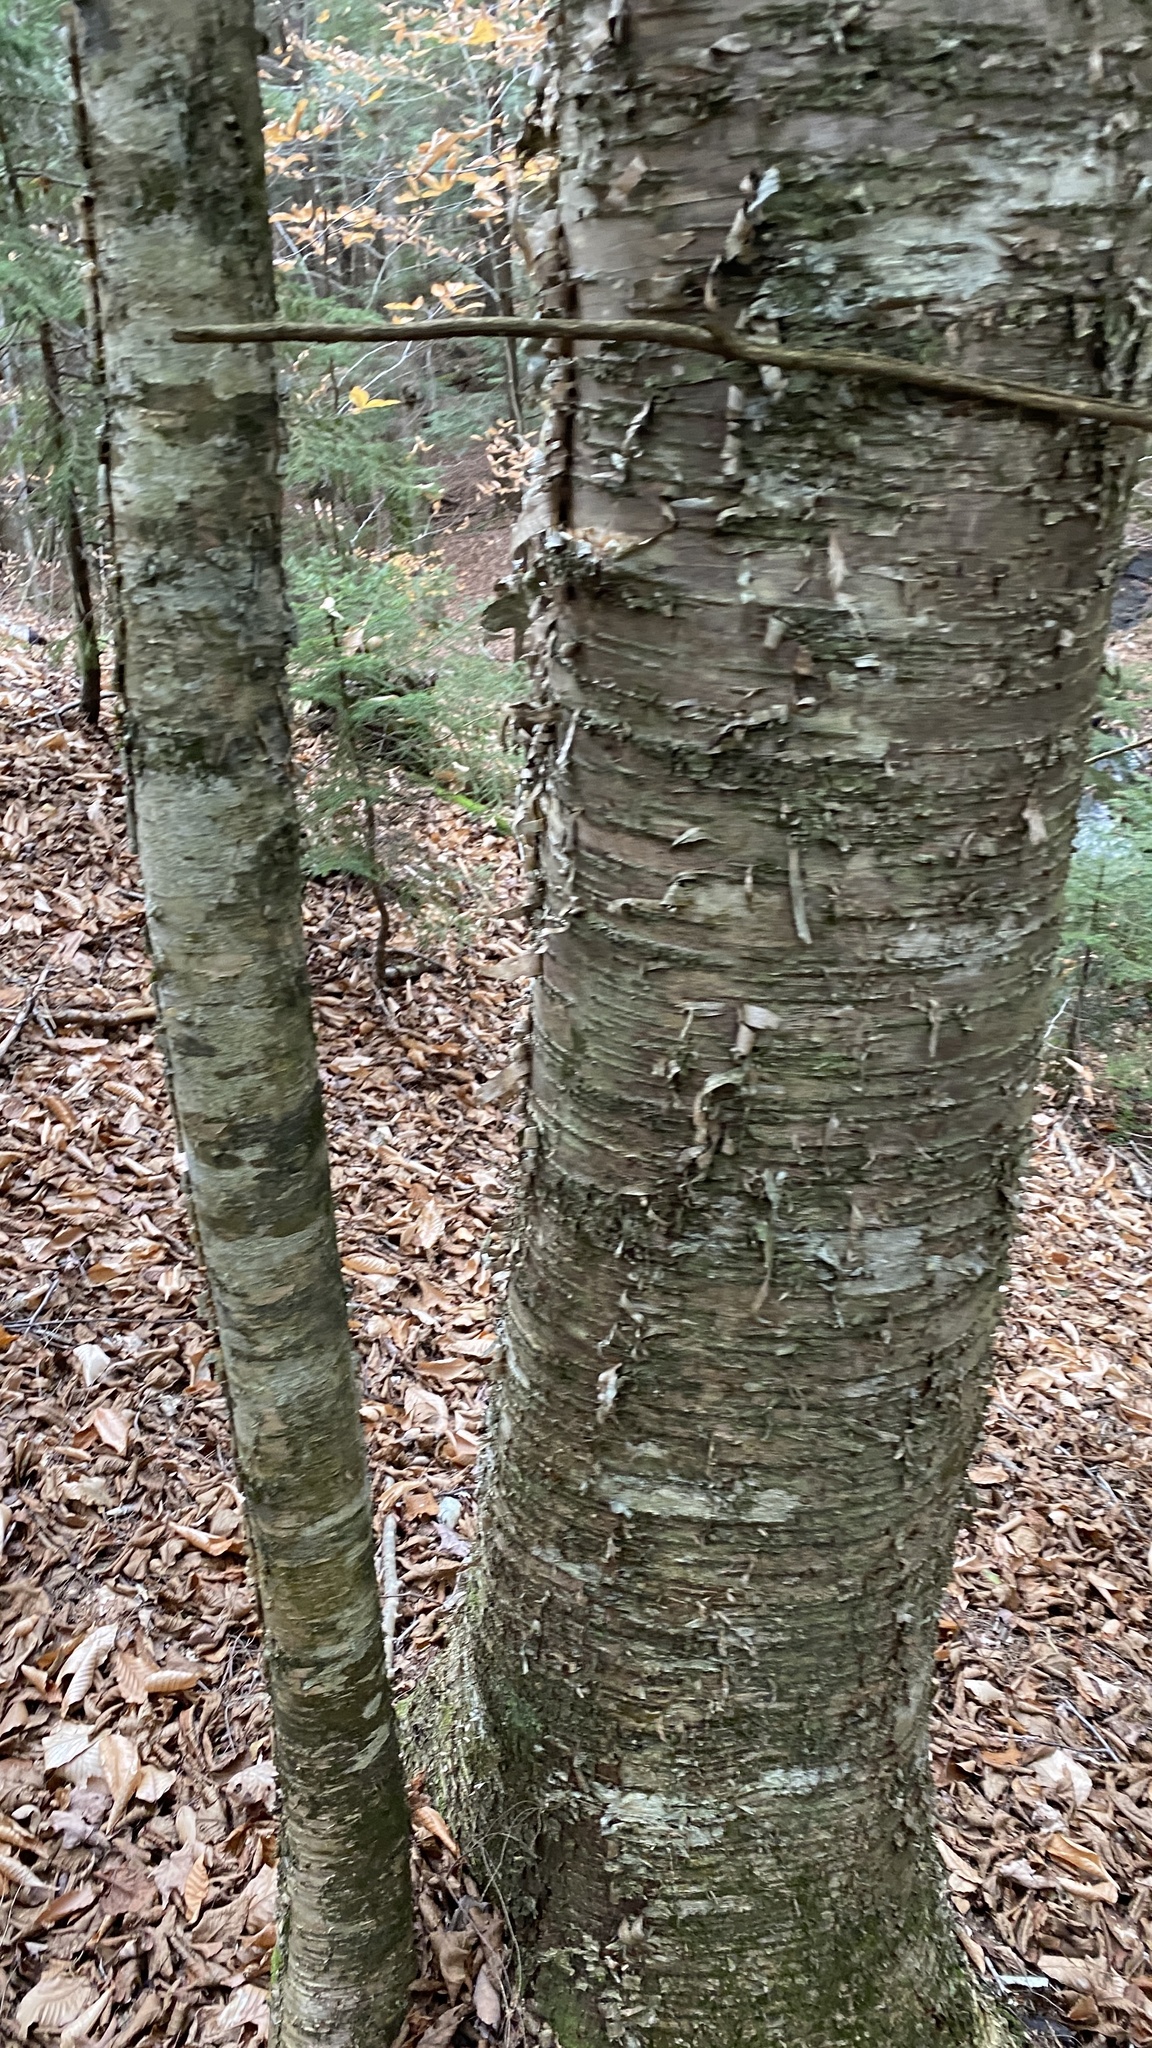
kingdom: Plantae
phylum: Tracheophyta
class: Magnoliopsida
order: Fagales
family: Betulaceae
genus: Betula
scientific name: Betula alleghaniensis
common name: Yellow birch
